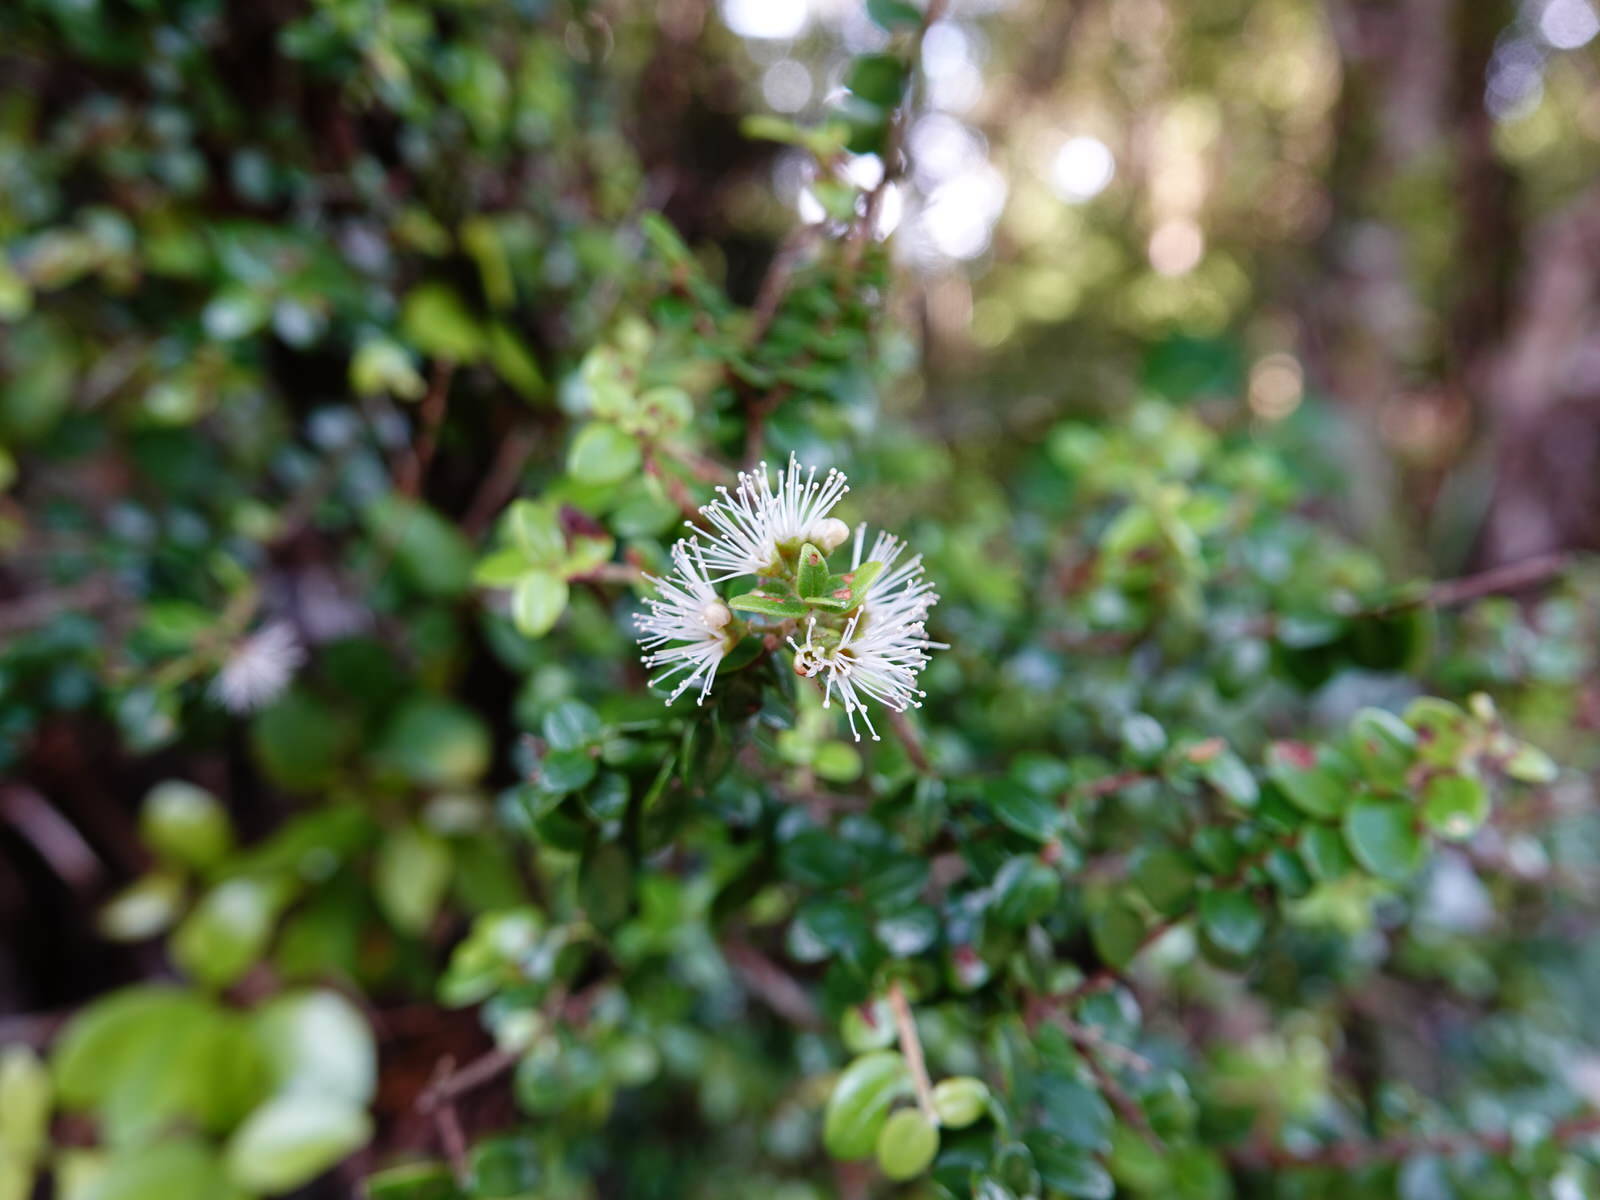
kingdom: Plantae
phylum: Tracheophyta
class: Magnoliopsida
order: Myrtales
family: Myrtaceae
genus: Metrosideros
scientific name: Metrosideros perforata
